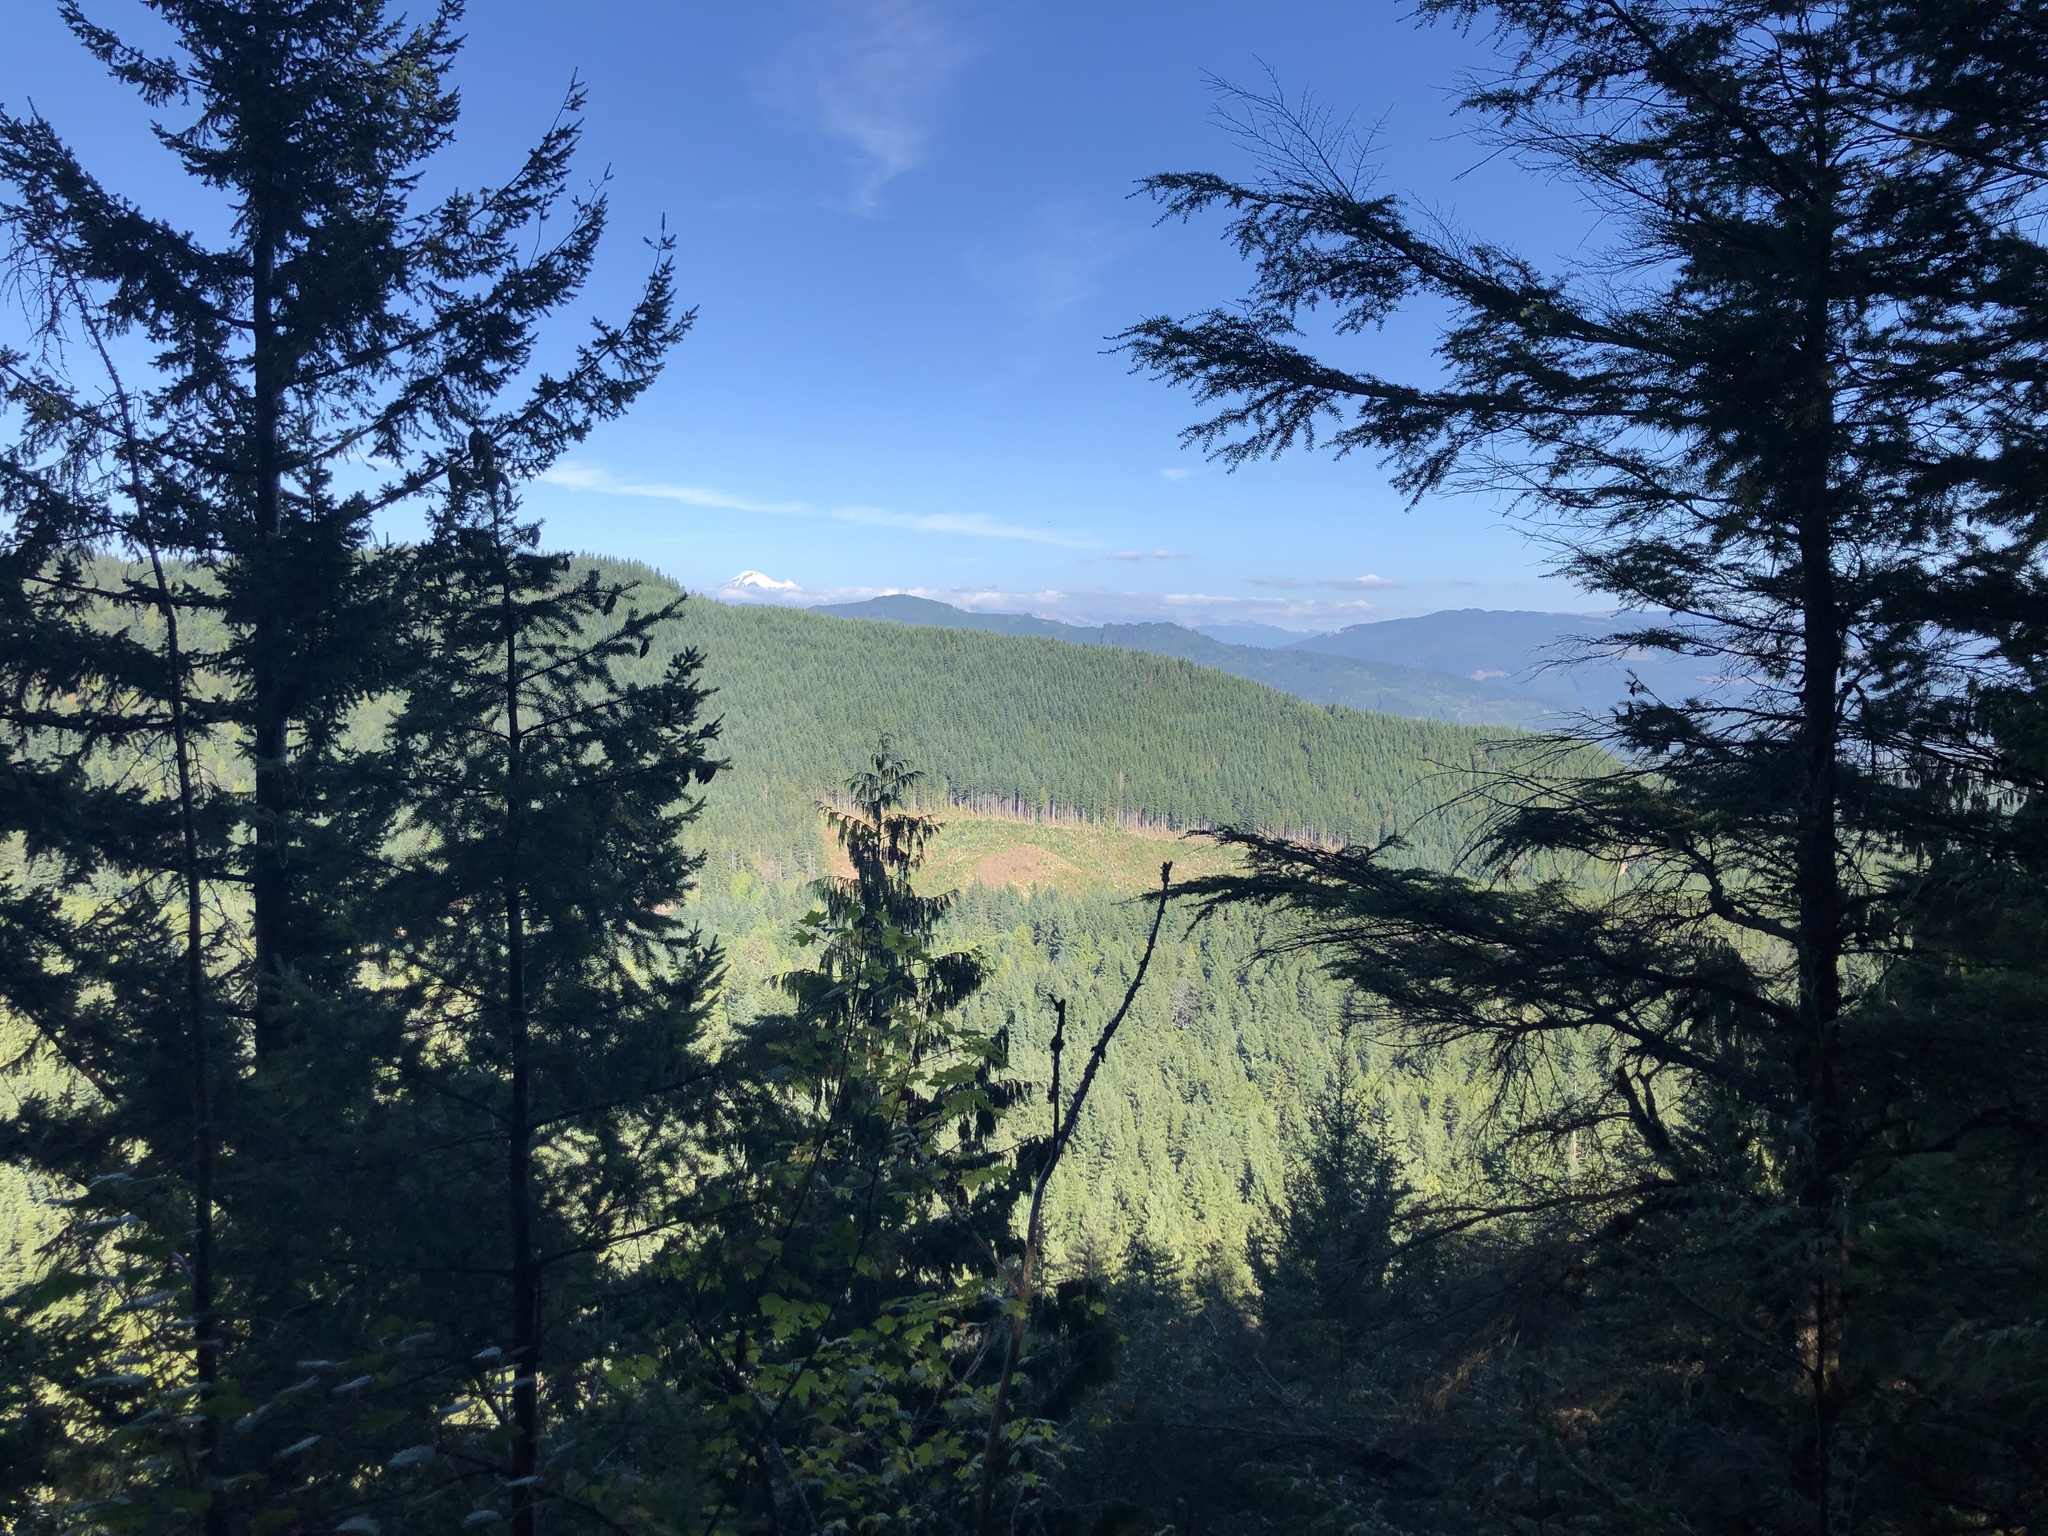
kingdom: Plantae
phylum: Tracheophyta
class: Pinopsida
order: Pinales
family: Pinaceae
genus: Tsuga
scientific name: Tsuga heterophylla
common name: Western hemlock
